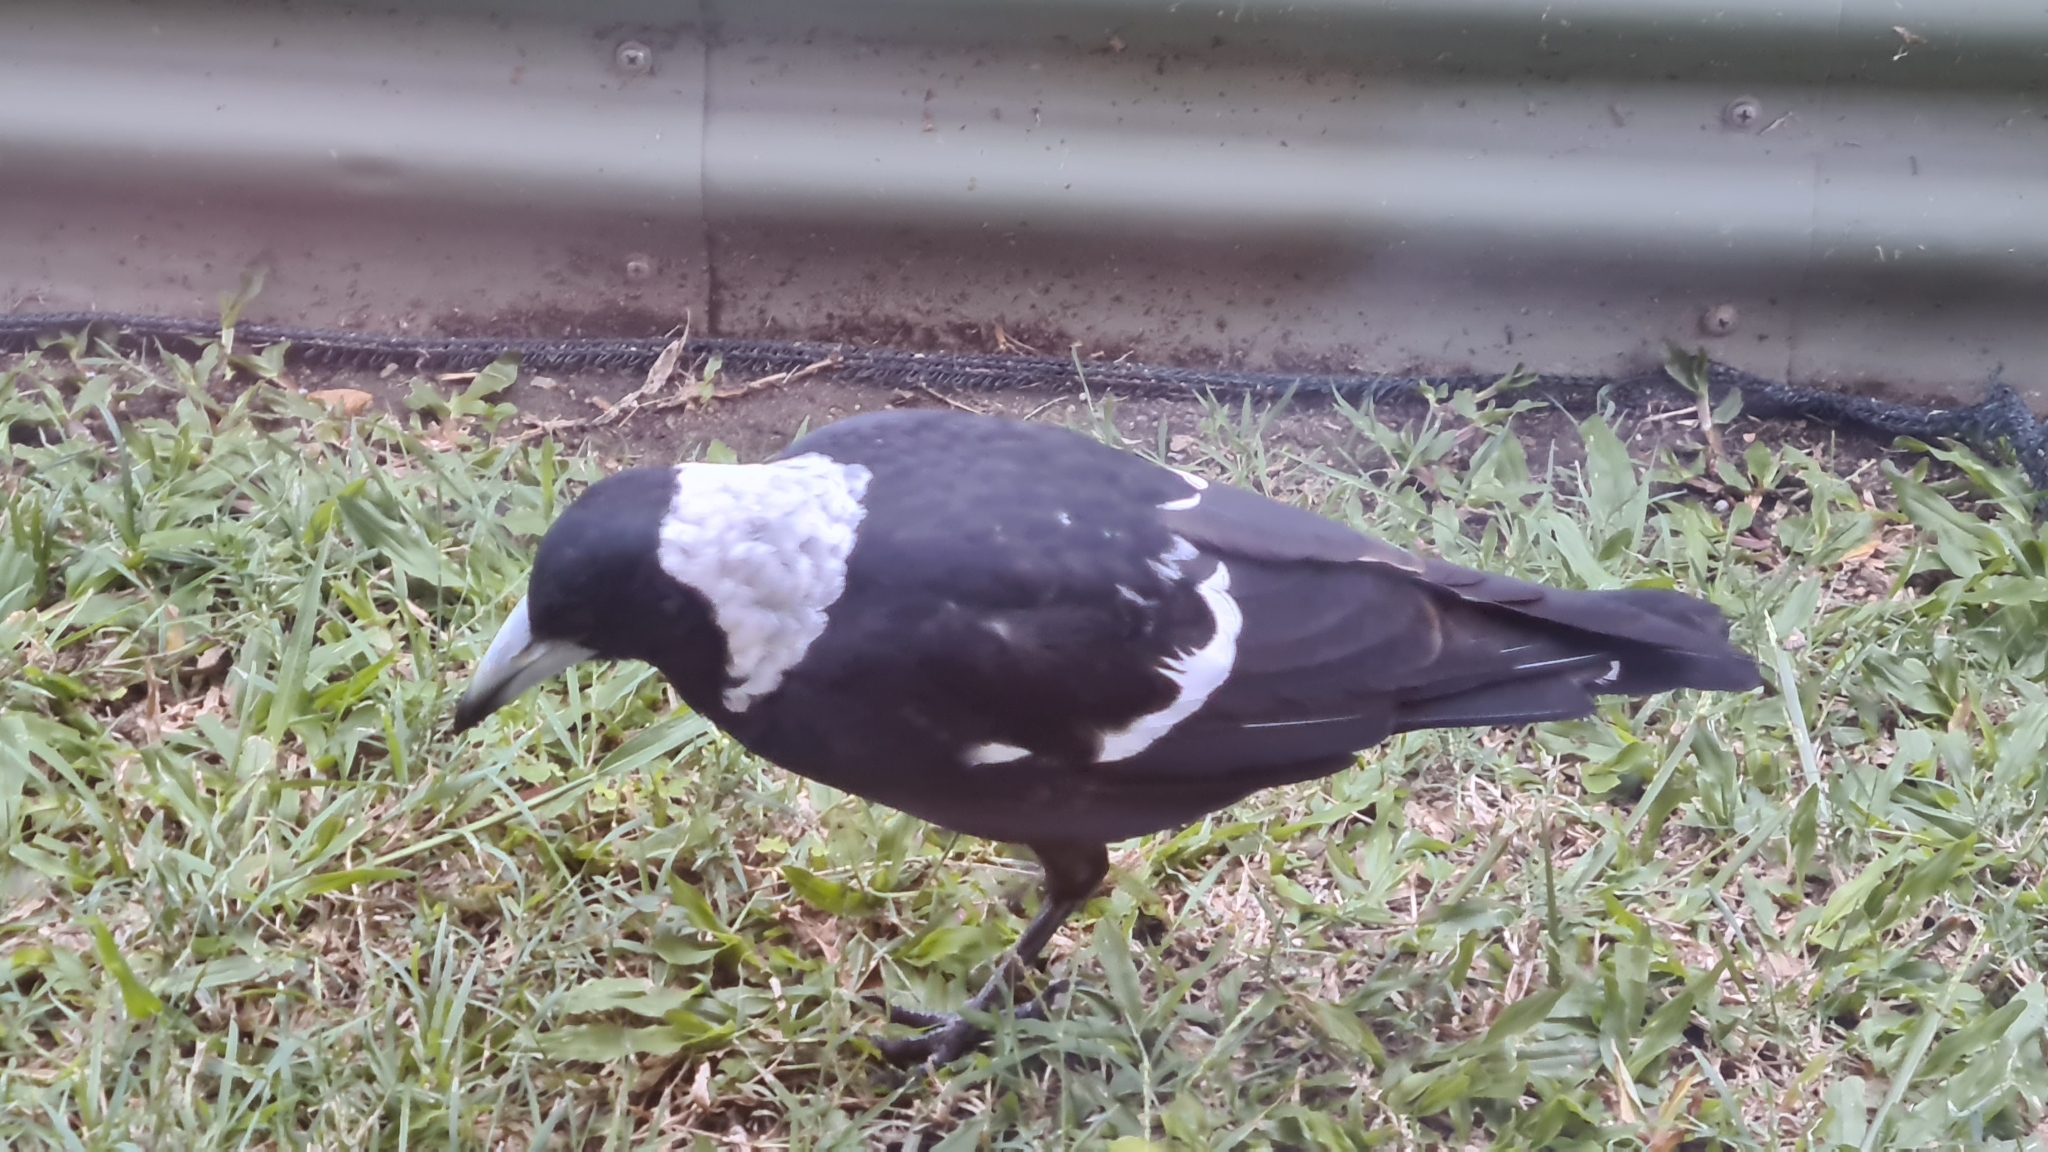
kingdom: Animalia
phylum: Chordata
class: Aves
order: Passeriformes
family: Cracticidae
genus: Gymnorhina
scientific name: Gymnorhina tibicen
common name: Australian magpie
